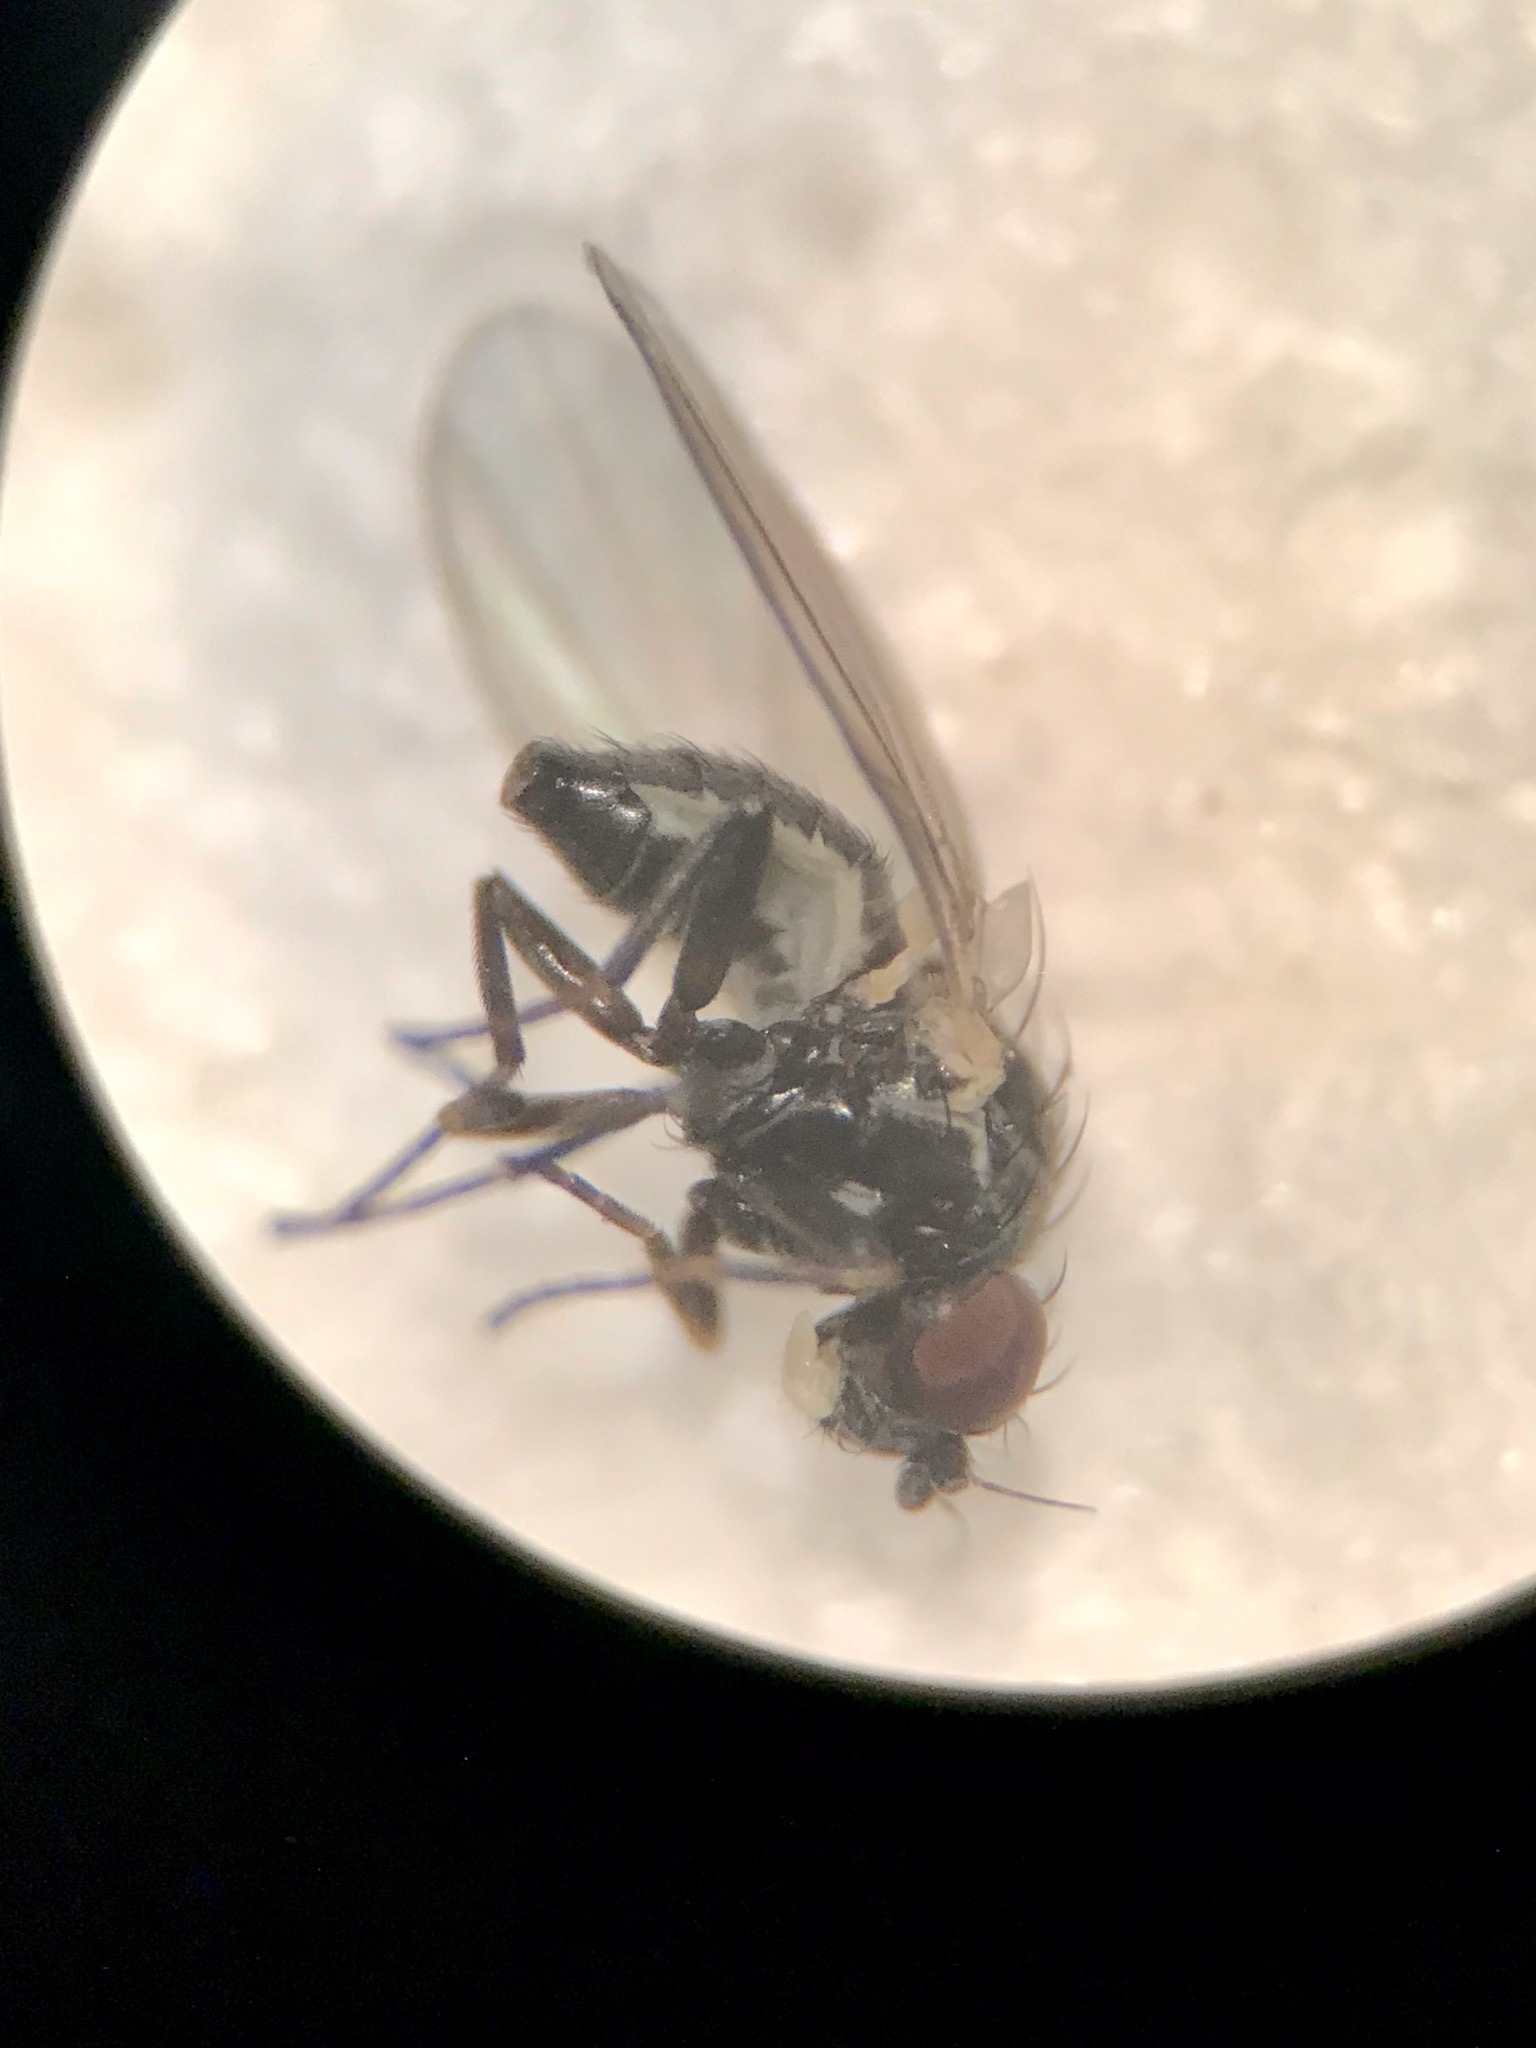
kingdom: Animalia
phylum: Arthropoda
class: Insecta
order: Diptera
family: Agromyzidae
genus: Phytomyza
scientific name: Phytomyza confusa
